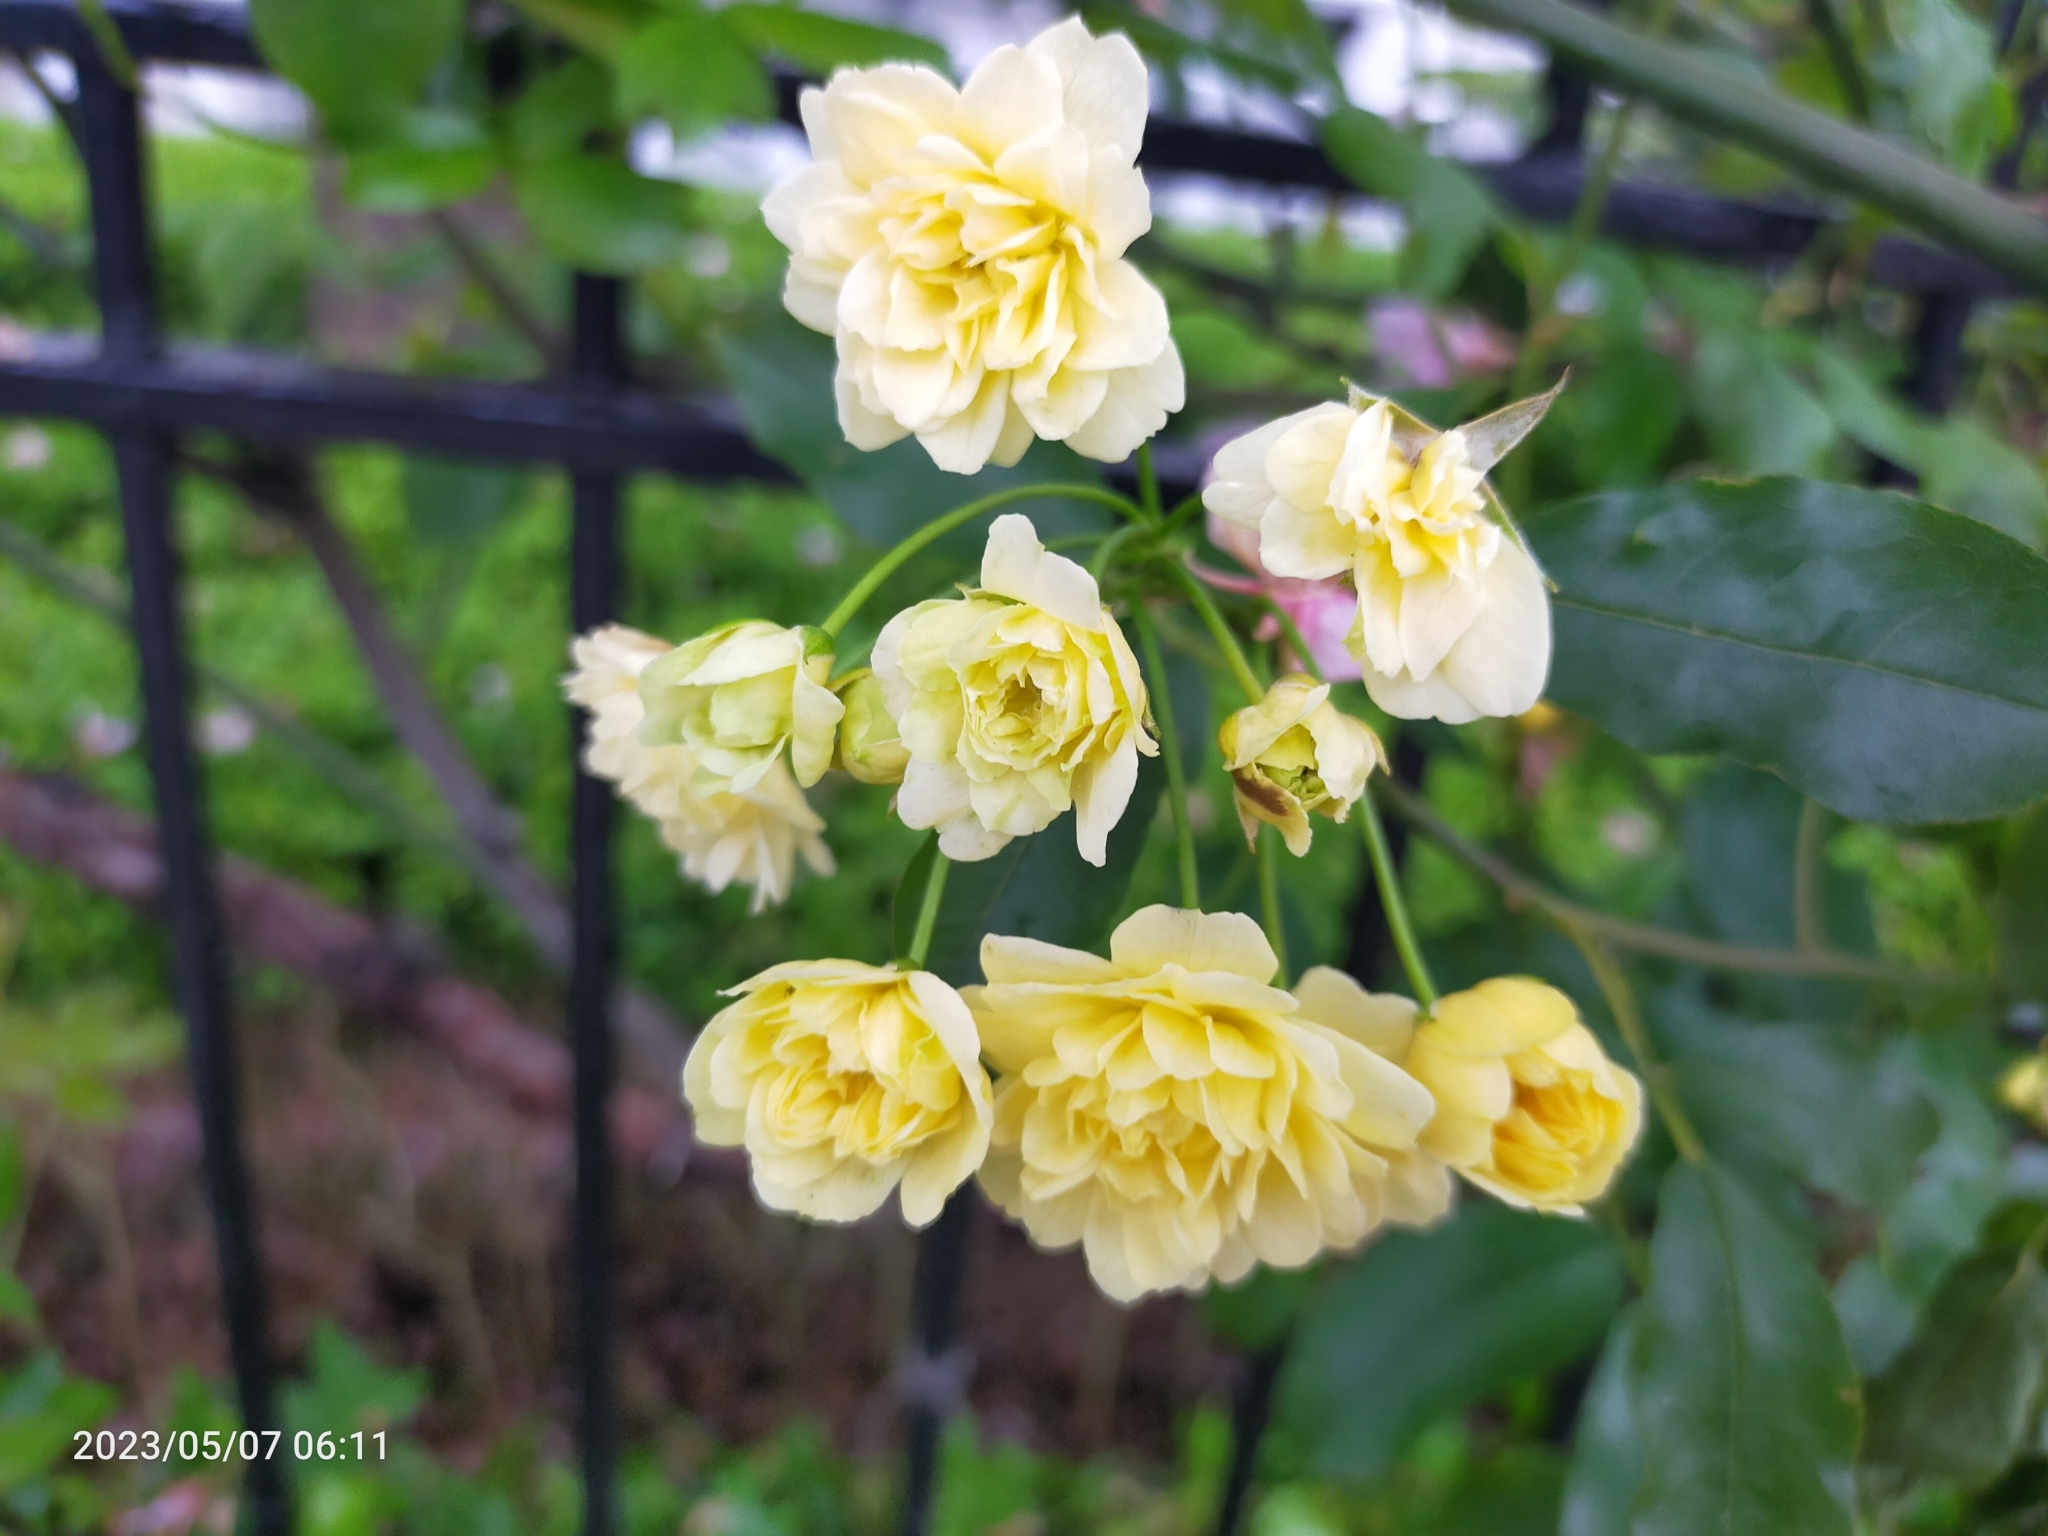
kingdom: Plantae
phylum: Tracheophyta
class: Magnoliopsida
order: Rosales
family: Rosaceae
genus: Rosa
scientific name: Rosa
